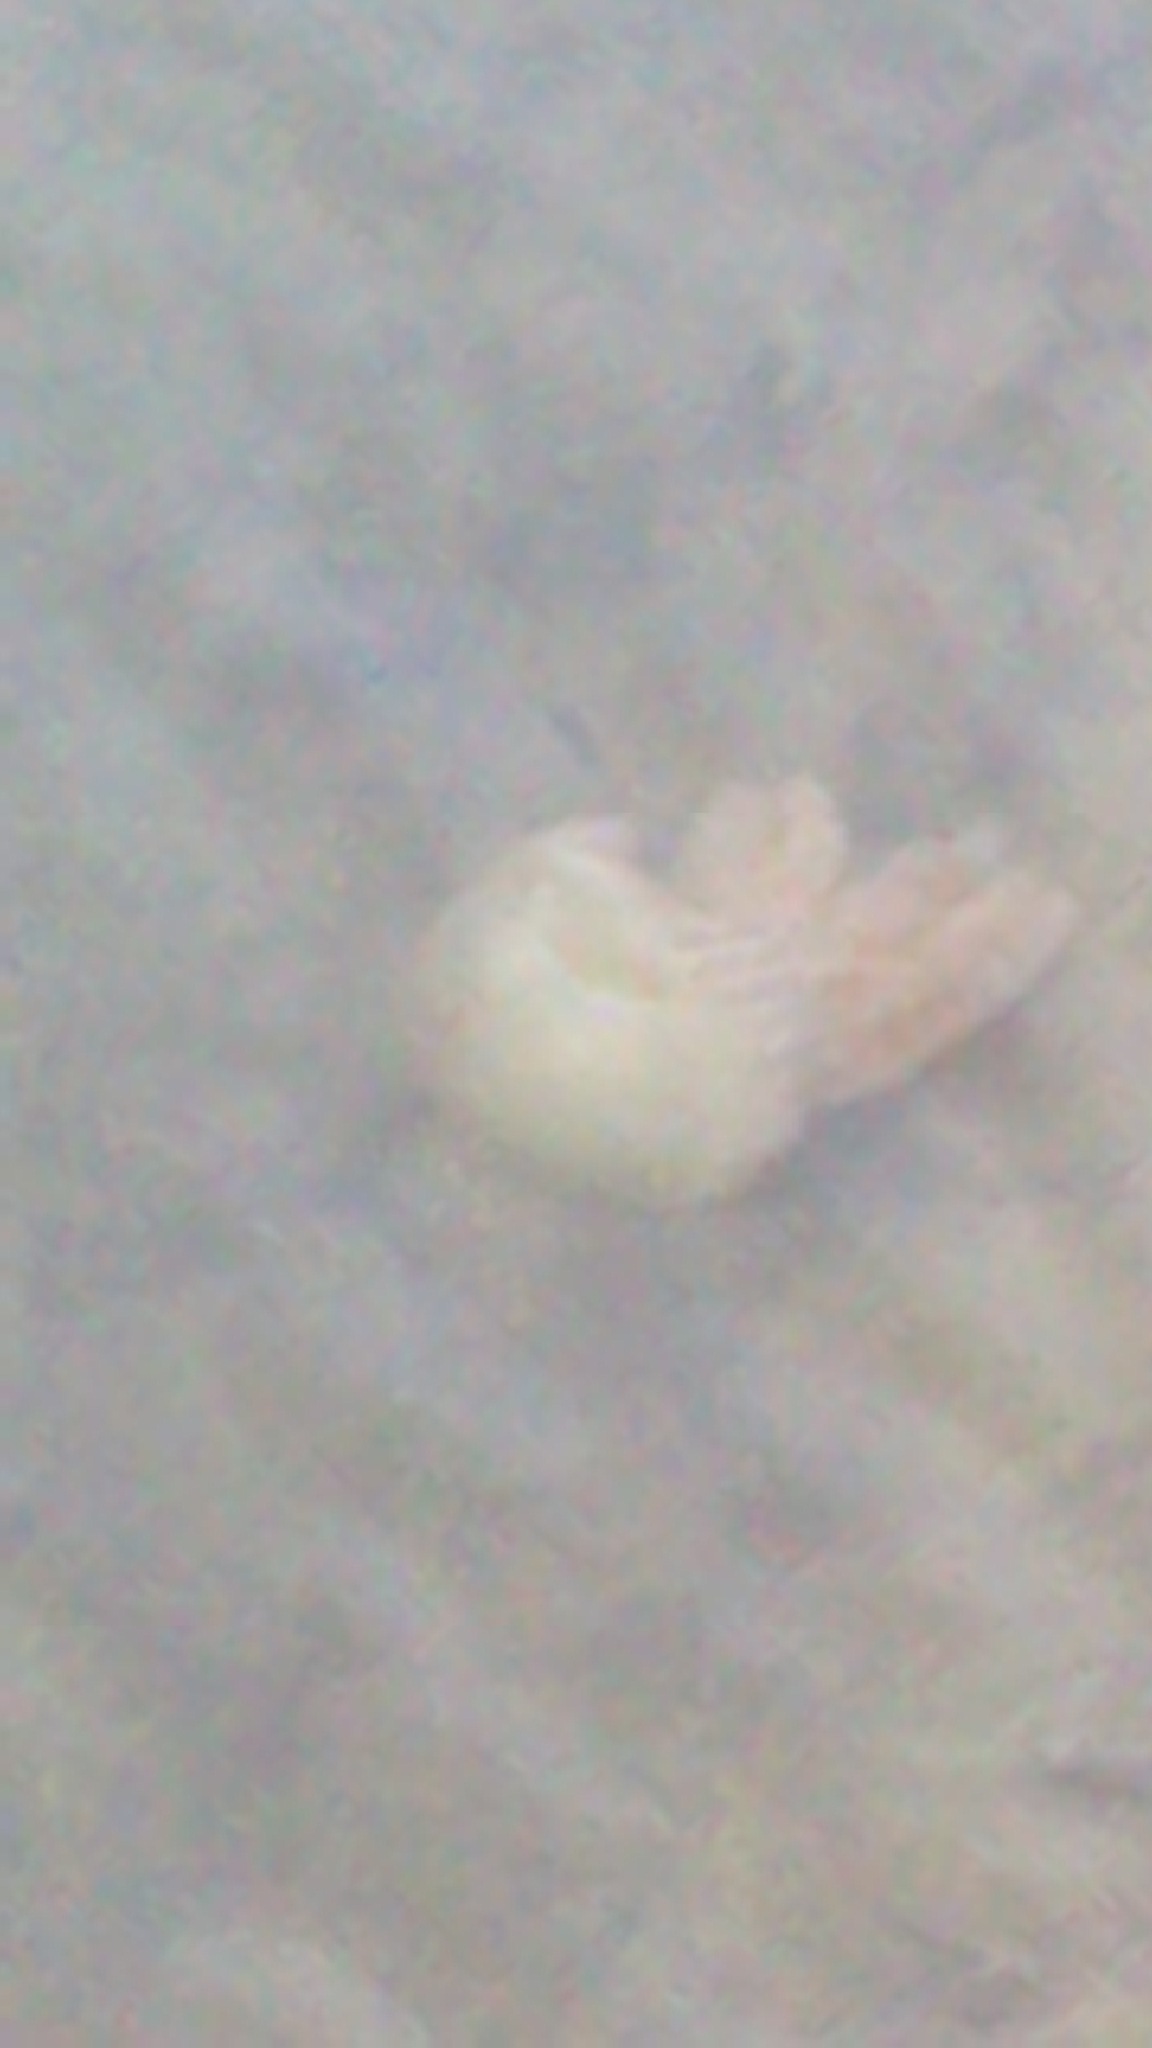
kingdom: Animalia
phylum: Cnidaria
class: Scyphozoa
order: Rhizostomeae
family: Catostylidae
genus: Catostylus
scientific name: Catostylus tagi
